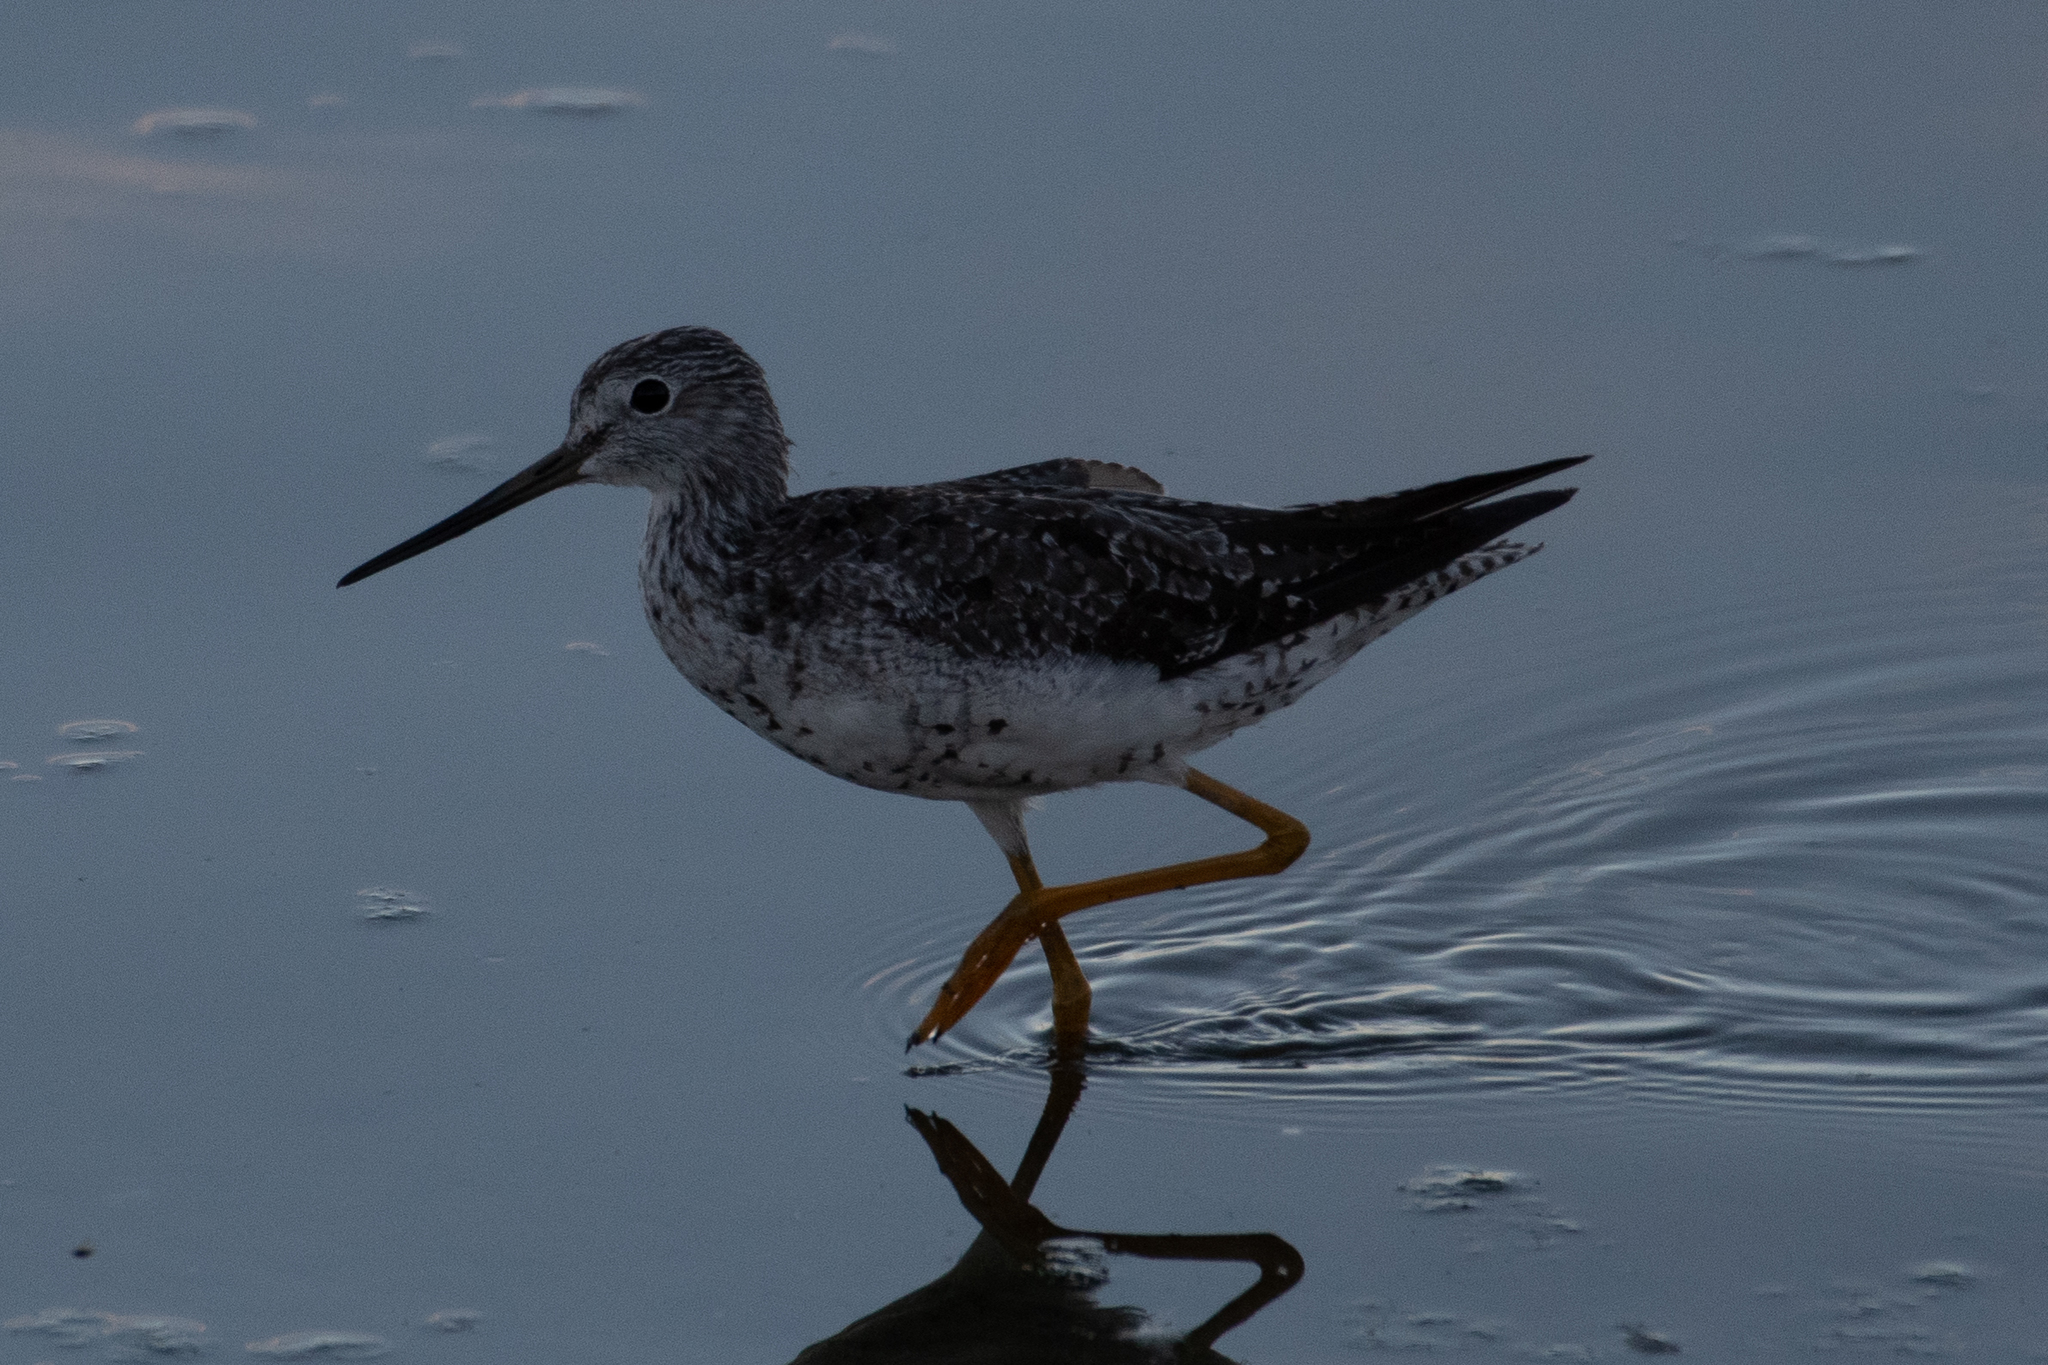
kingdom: Animalia
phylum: Chordata
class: Aves
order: Charadriiformes
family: Scolopacidae
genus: Tringa
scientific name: Tringa melanoleuca
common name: Greater yellowlegs
